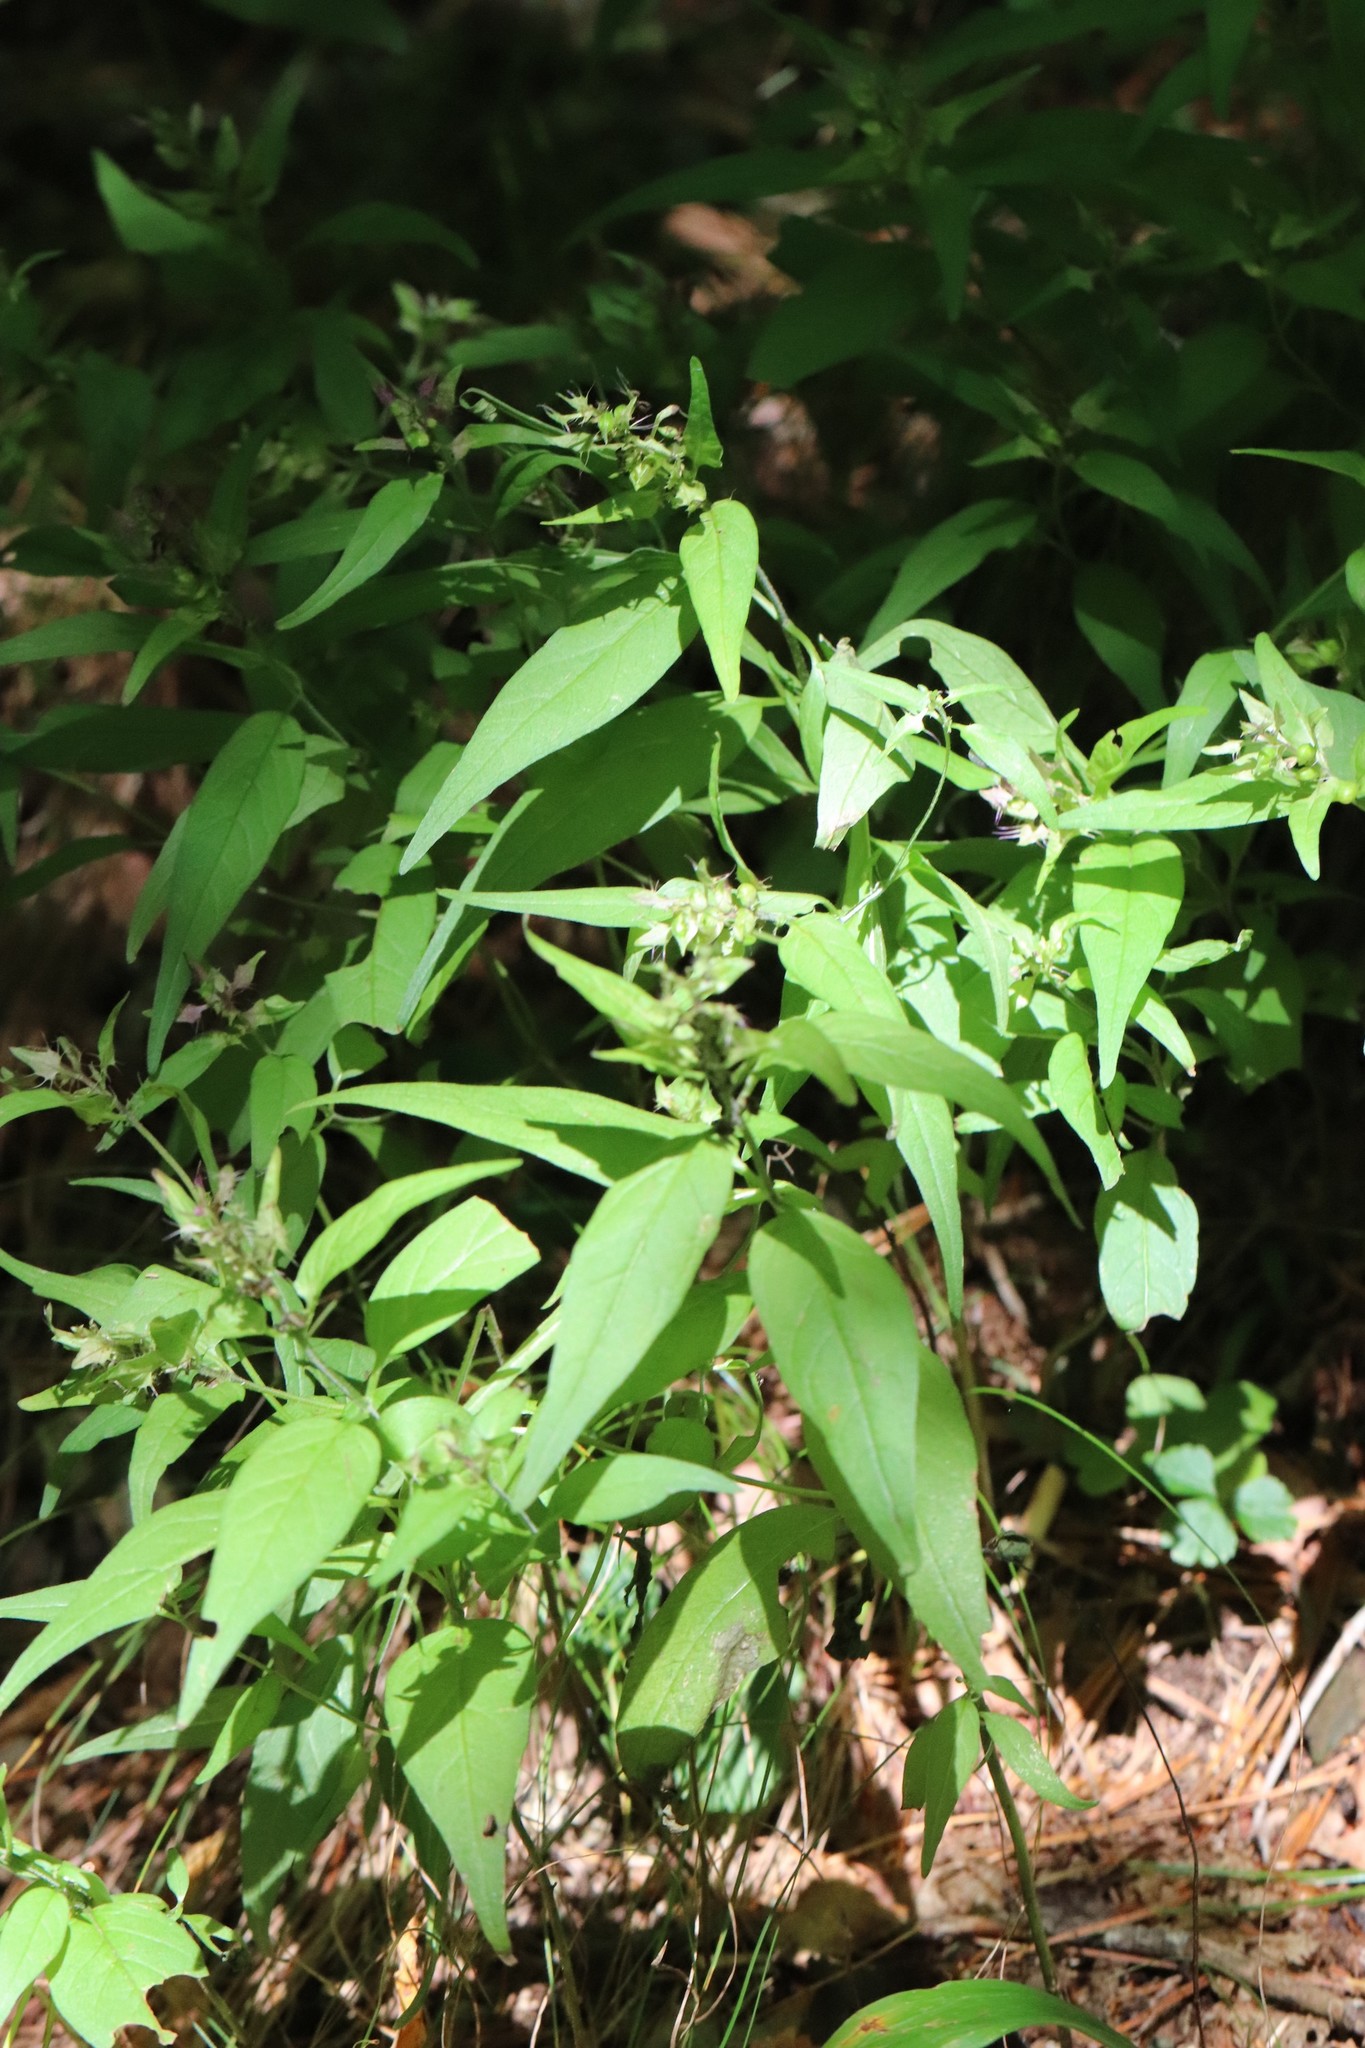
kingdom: Plantae
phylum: Tracheophyta
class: Magnoliopsida
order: Lamiales
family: Orobanchaceae
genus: Melampyrum
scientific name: Melampyrum setaceum
